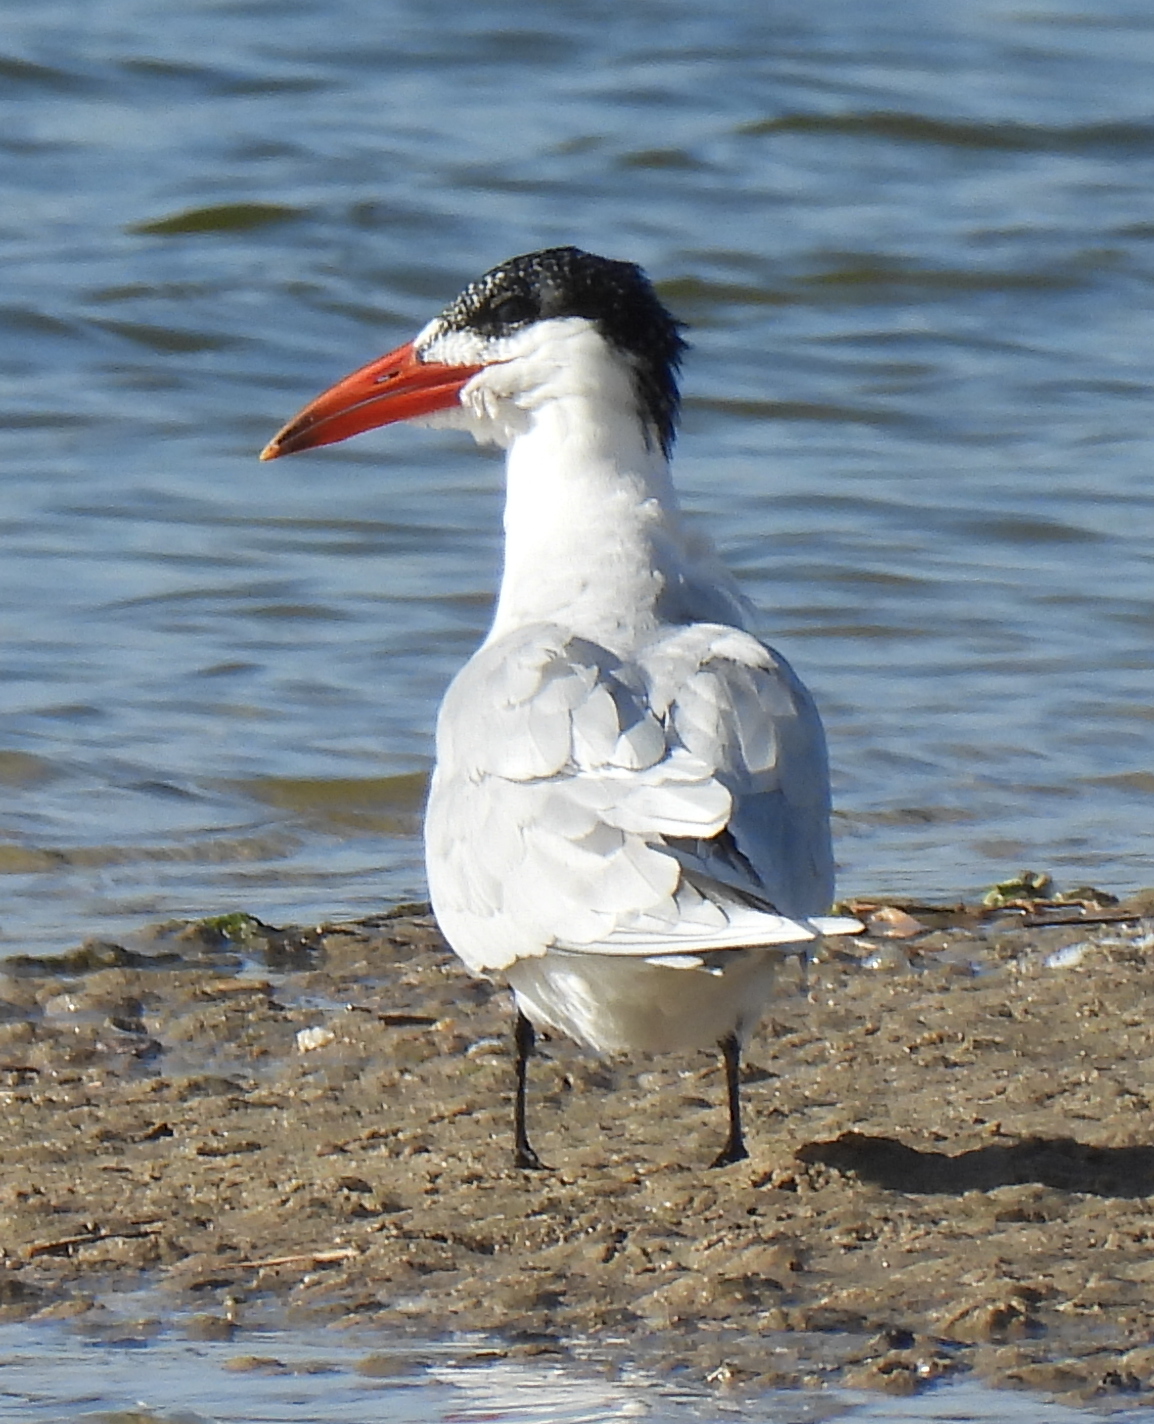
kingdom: Animalia
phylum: Chordata
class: Aves
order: Charadriiformes
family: Laridae
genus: Hydroprogne
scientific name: Hydroprogne caspia
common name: Caspian tern
